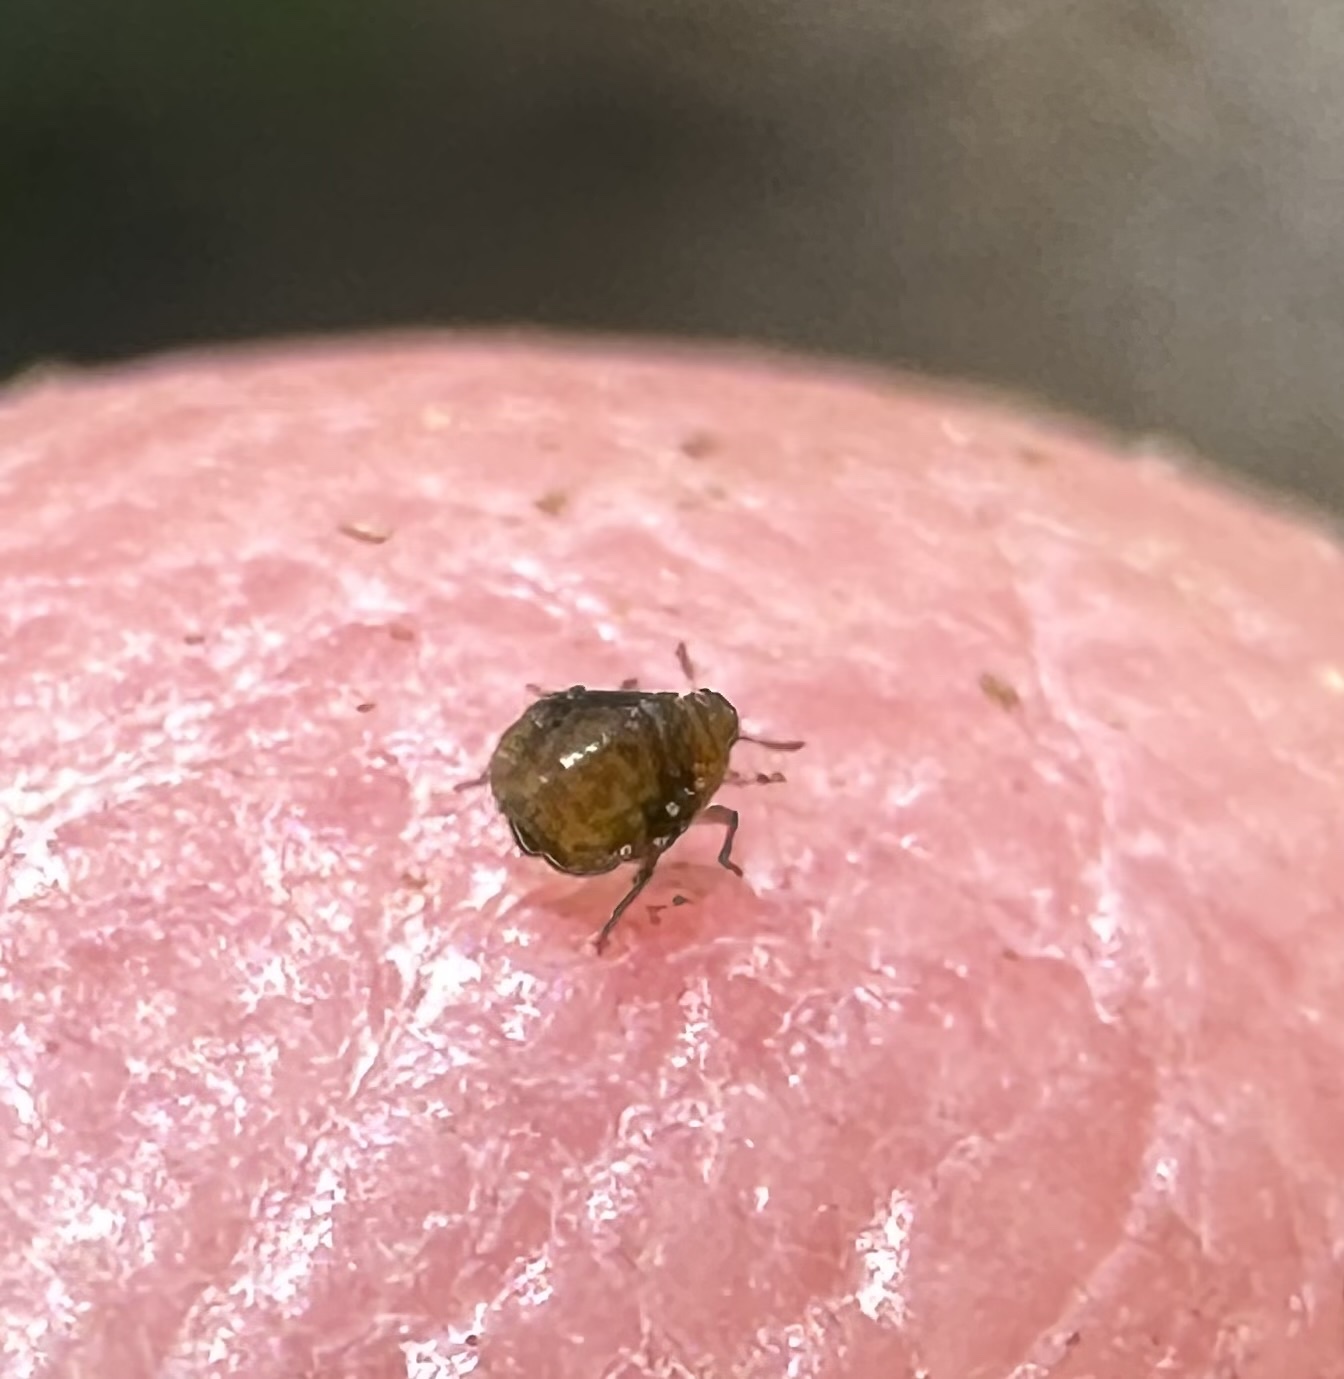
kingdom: Animalia
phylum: Arthropoda
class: Insecta
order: Hemiptera
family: Aphididae
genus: Tamalia
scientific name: Tamalia coweni
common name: Manzanita leafgall aphid
